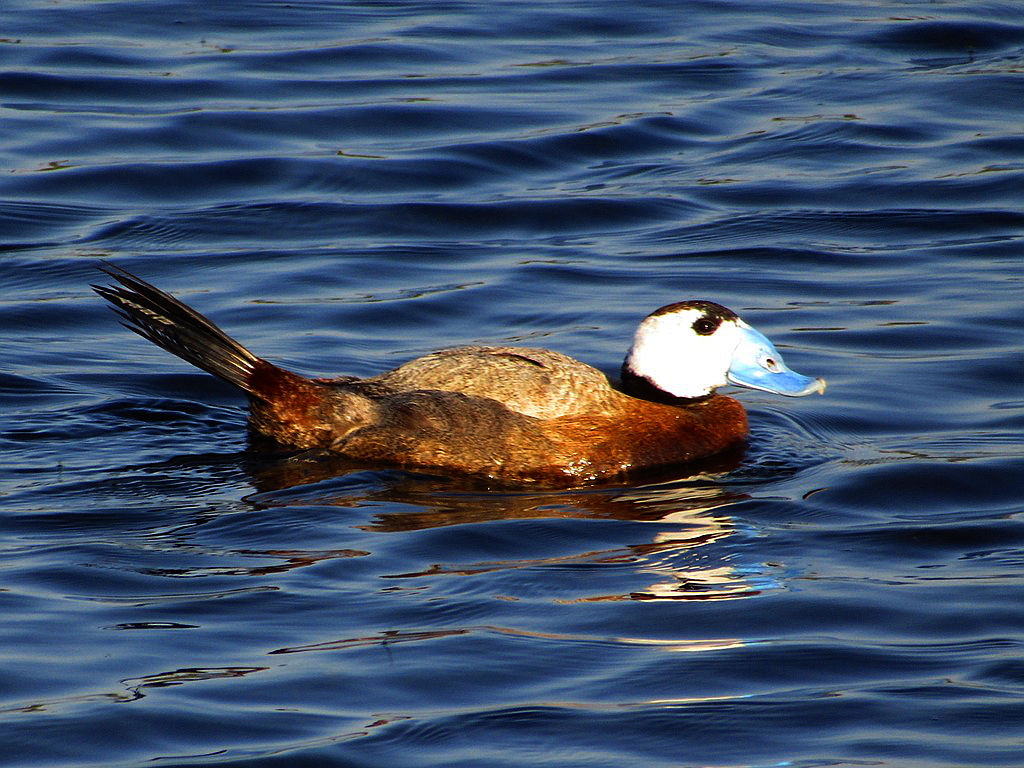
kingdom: Animalia
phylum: Chordata
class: Aves
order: Anseriformes
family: Anatidae
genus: Oxyura
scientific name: Oxyura leucocephala
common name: White-headed duck
